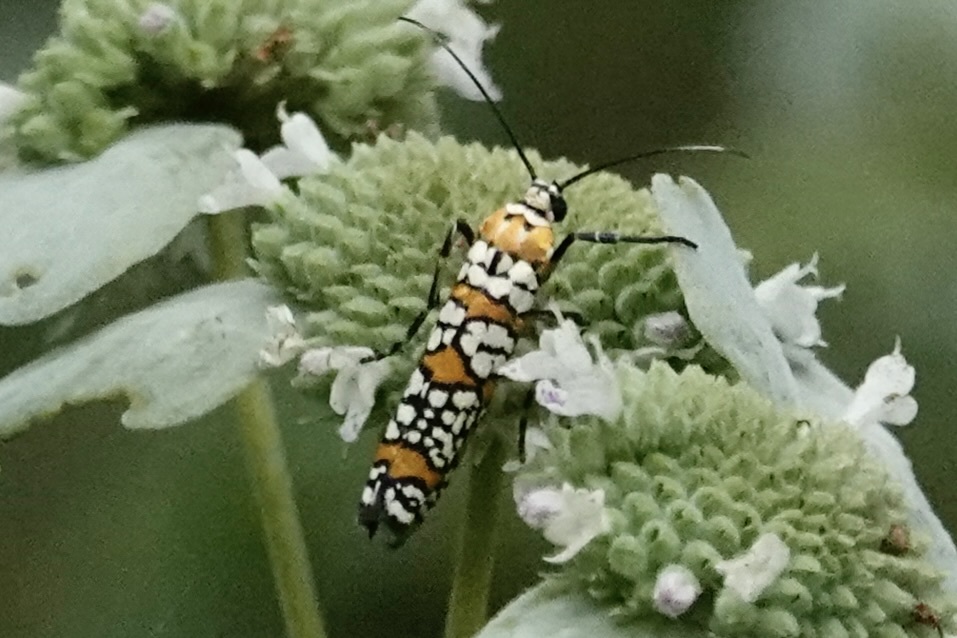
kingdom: Animalia
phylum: Arthropoda
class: Insecta
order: Lepidoptera
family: Attevidae
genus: Atteva
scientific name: Atteva punctella
